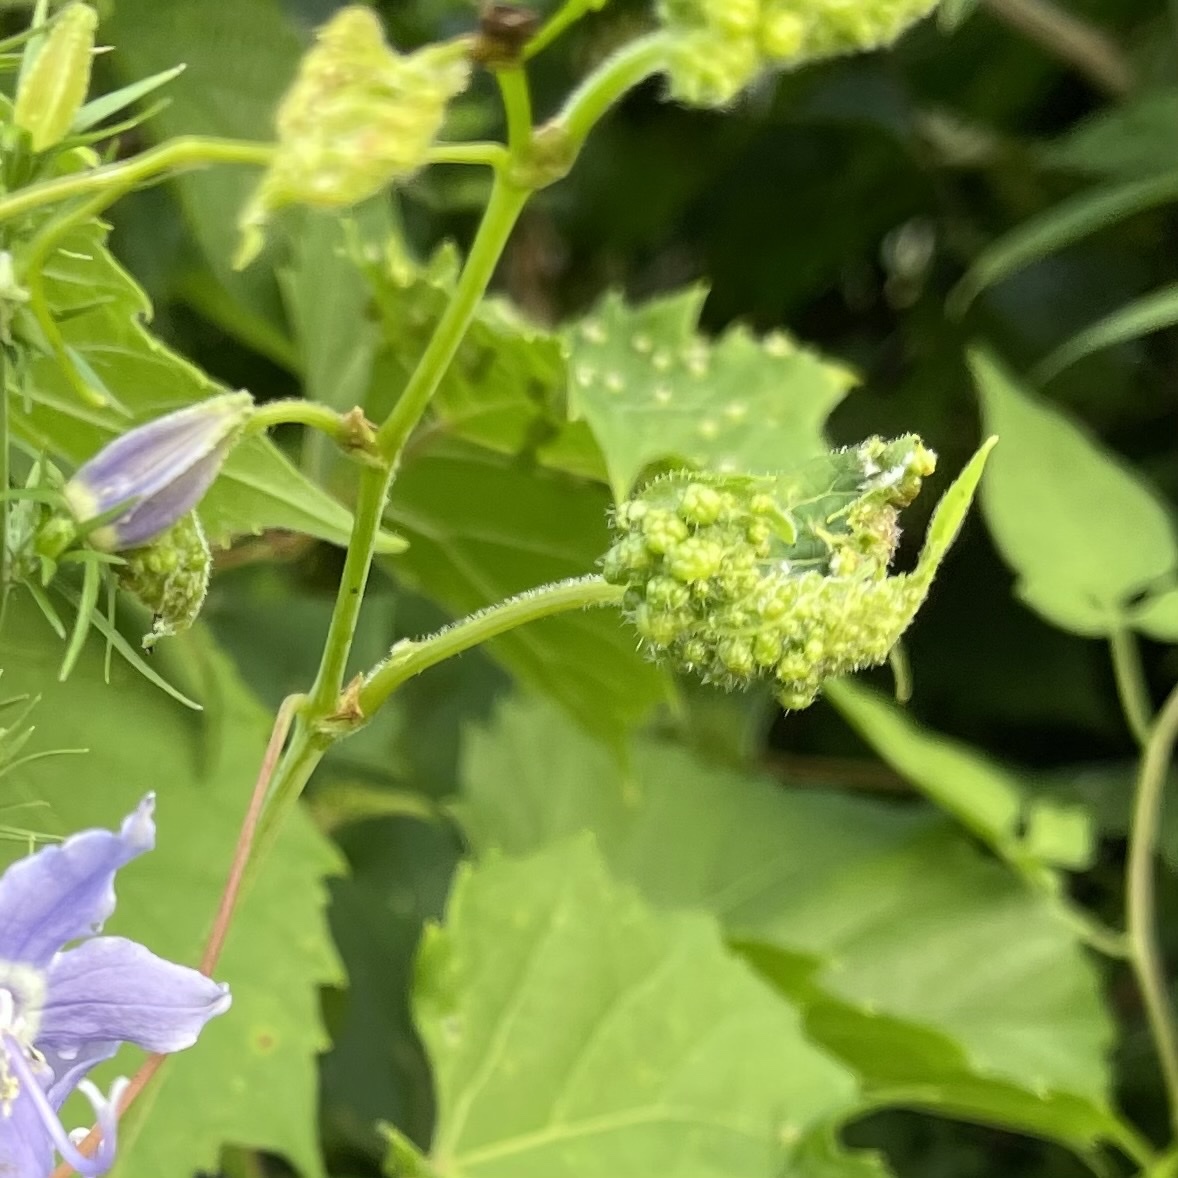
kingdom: Animalia
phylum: Arthropoda
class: Insecta
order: Hemiptera
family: Phylloxeridae
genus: Daktulosphaira
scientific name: Daktulosphaira vitifoliae
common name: Grape phylloxera
